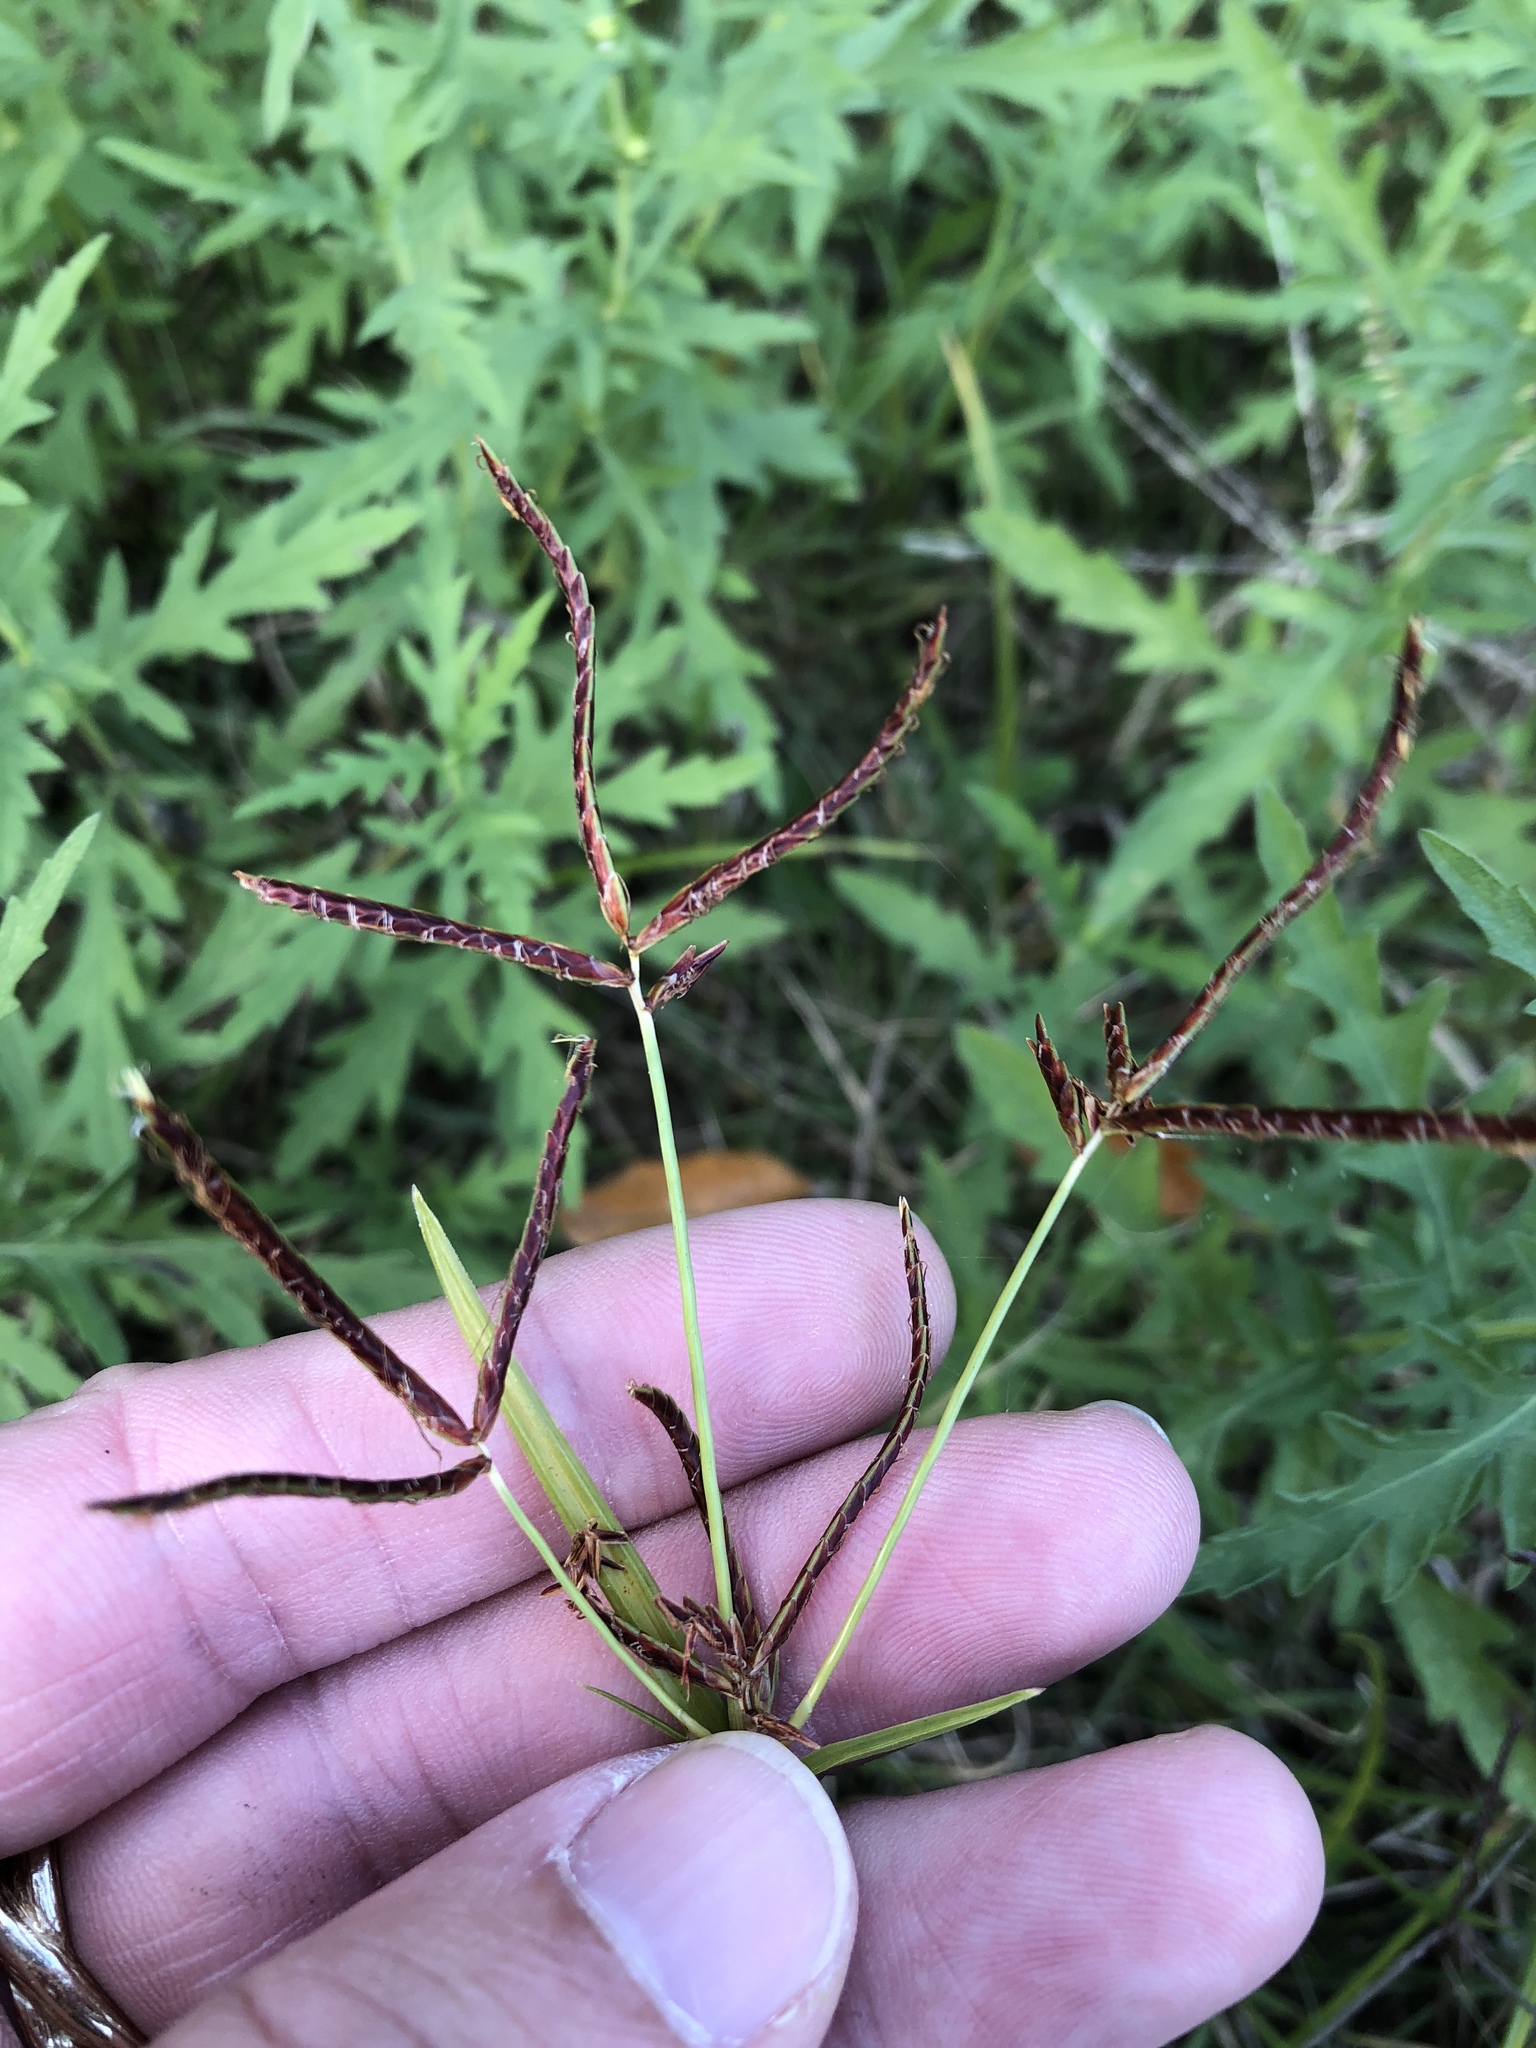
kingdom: Plantae
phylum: Tracheophyta
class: Liliopsida
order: Poales
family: Cyperaceae
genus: Cyperus
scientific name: Cyperus rotundus
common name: Nutgrass
